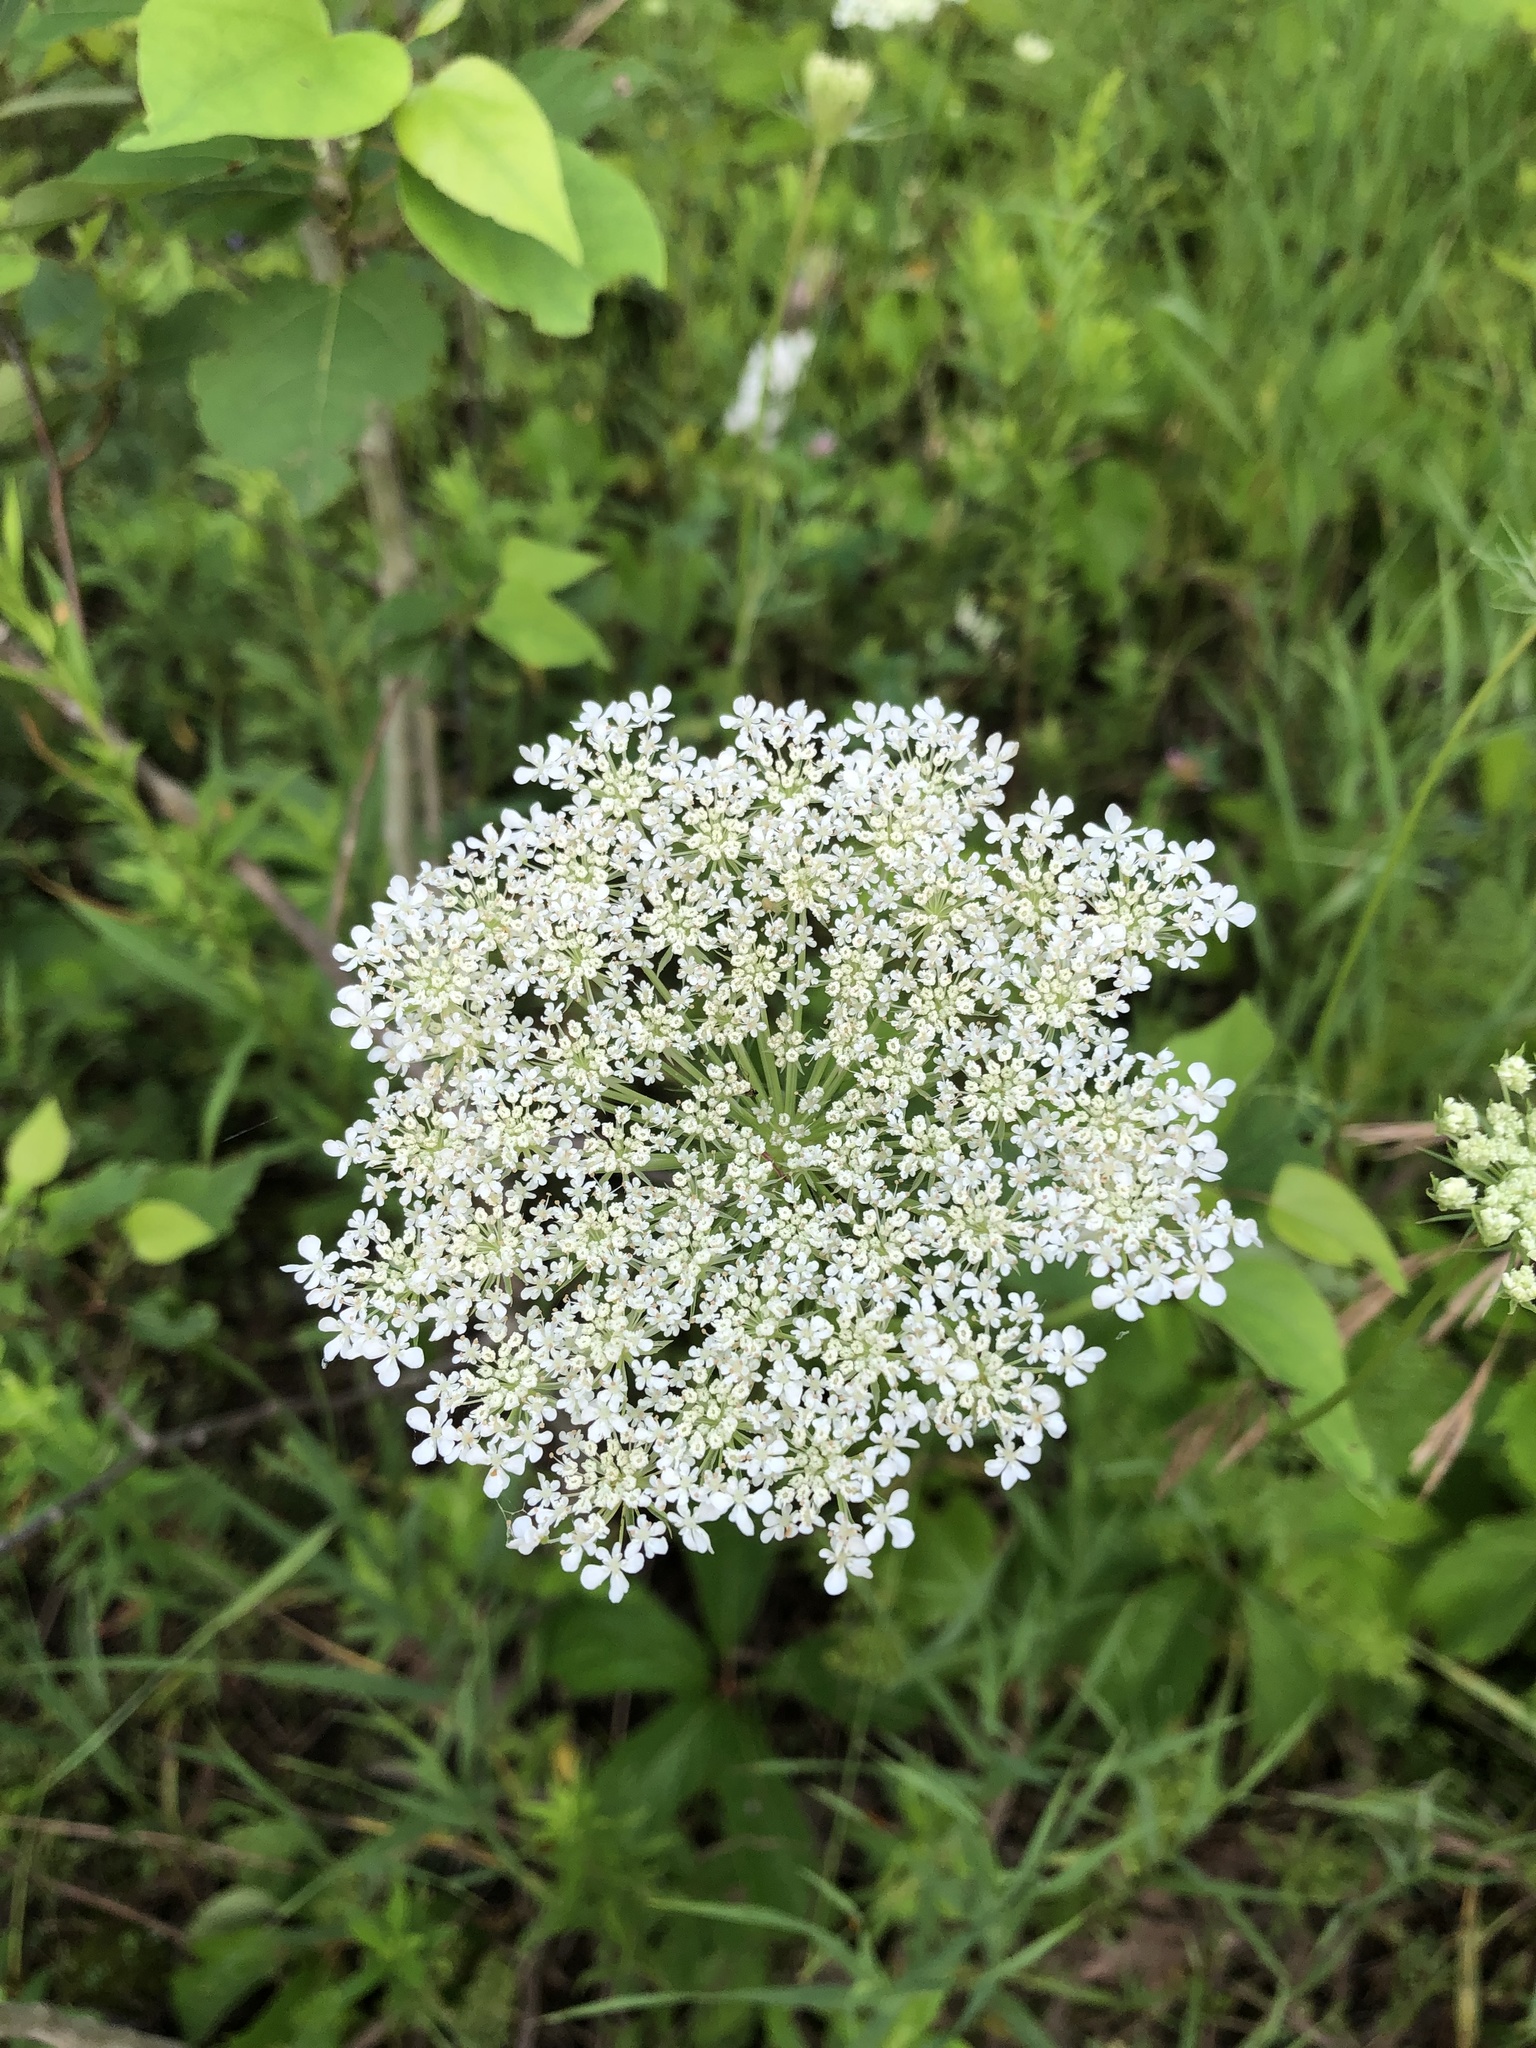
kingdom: Plantae
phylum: Tracheophyta
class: Magnoliopsida
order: Apiales
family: Apiaceae
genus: Daucus
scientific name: Daucus carota
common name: Wild carrot
